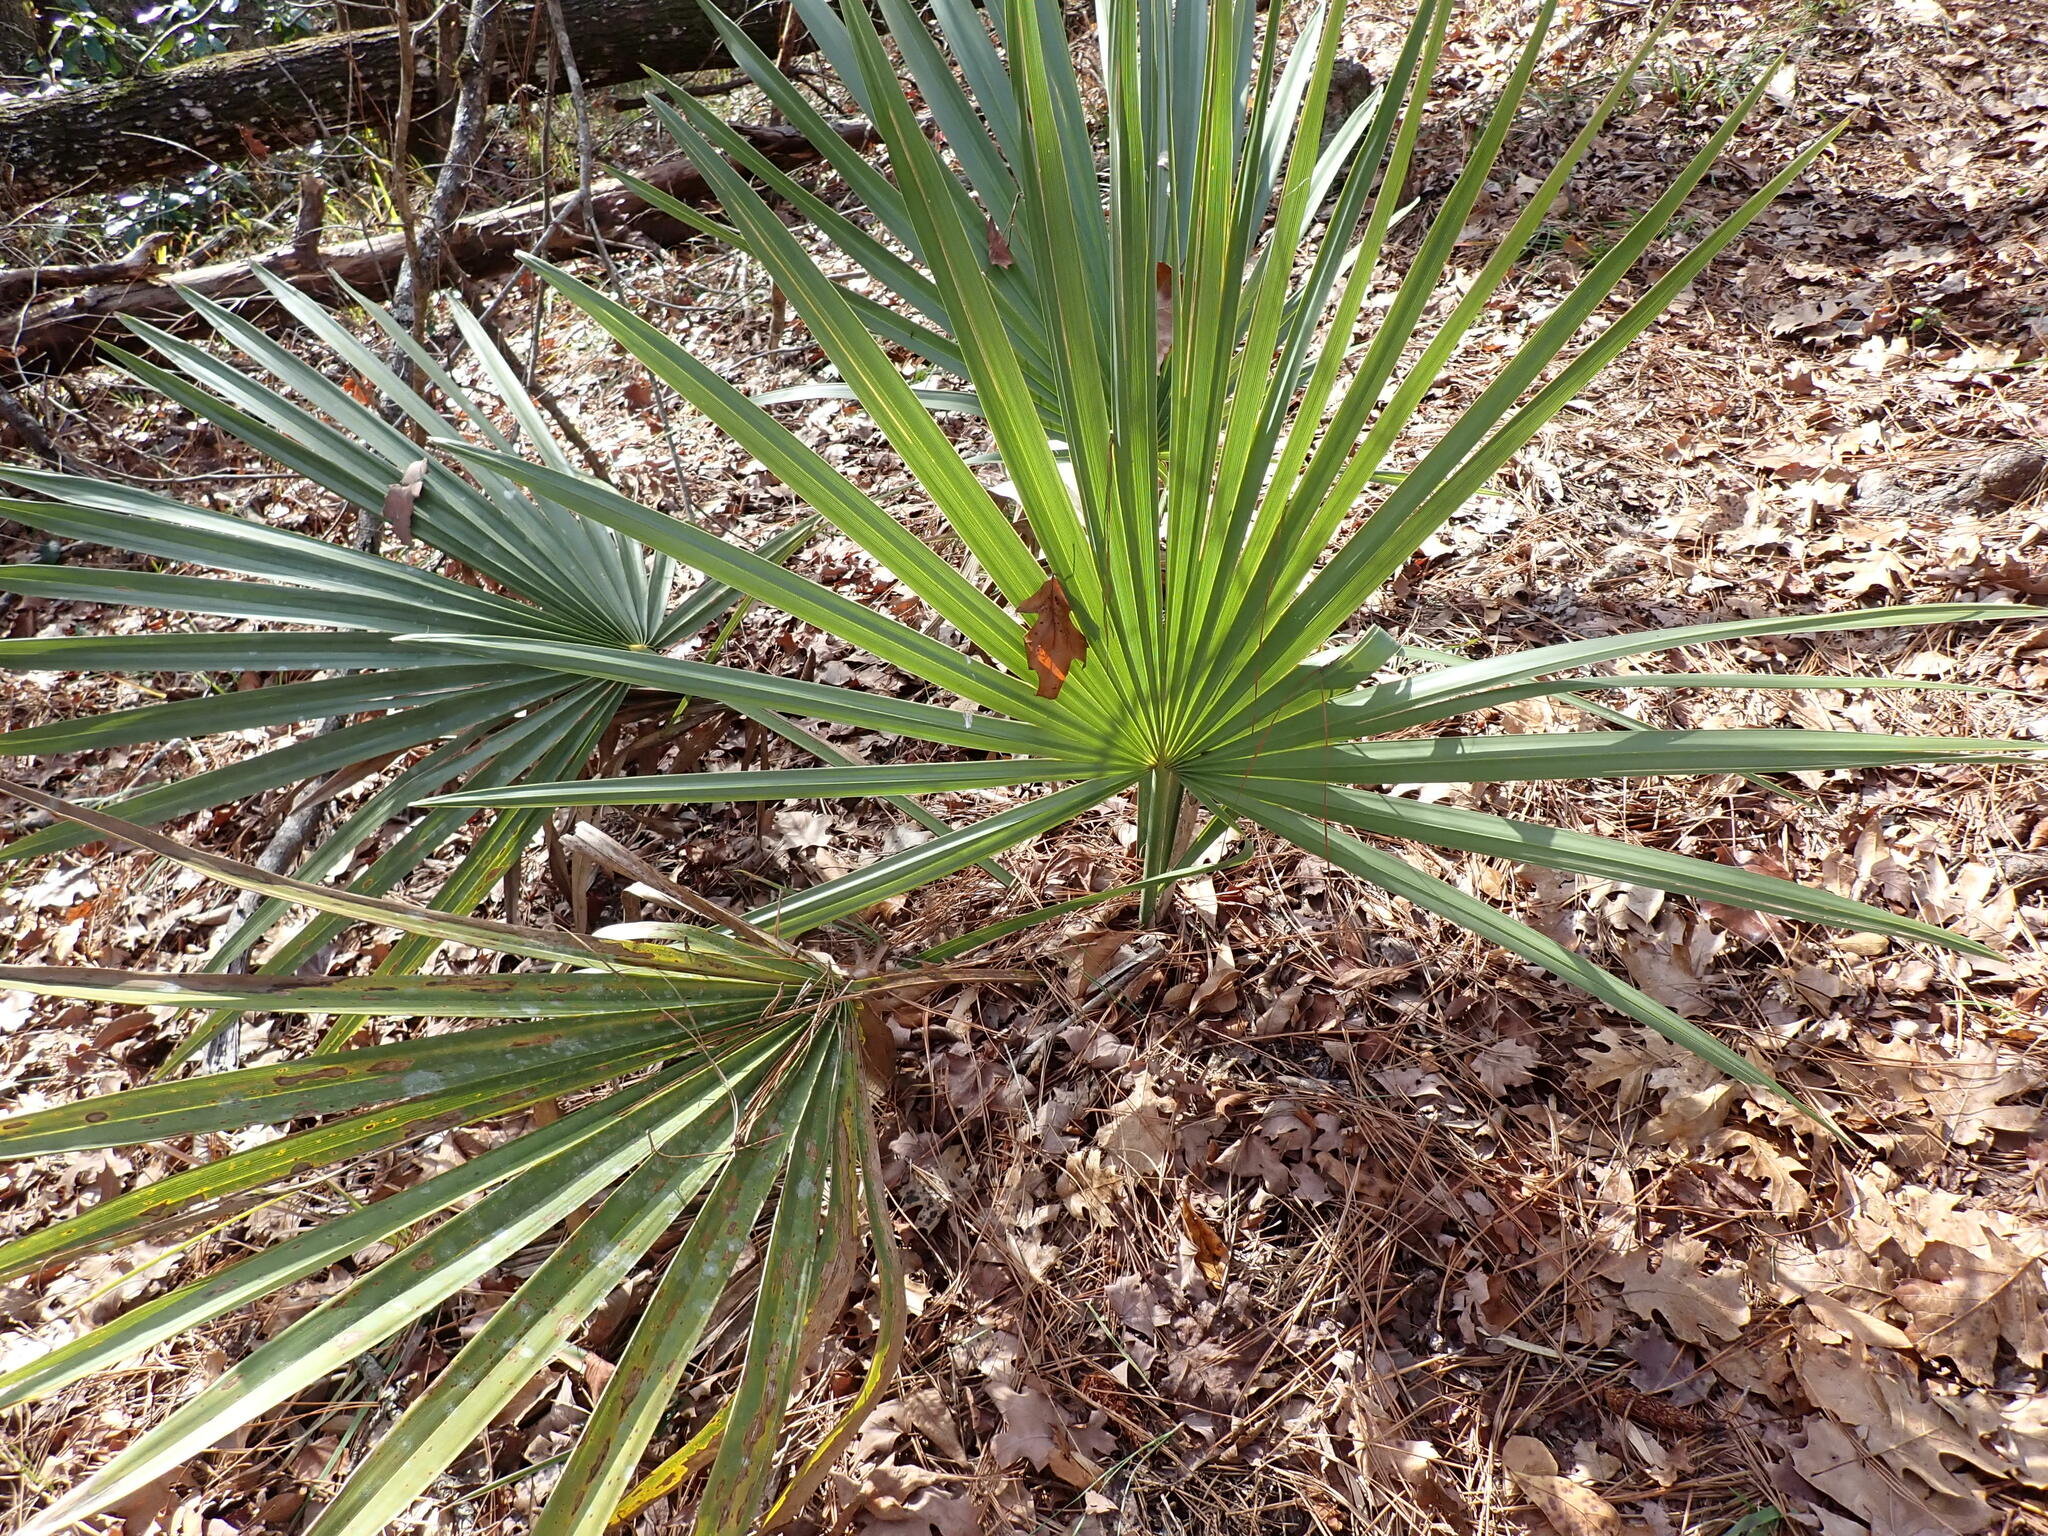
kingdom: Plantae
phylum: Tracheophyta
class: Liliopsida
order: Arecales
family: Arecaceae
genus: Sabal
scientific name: Sabal minor
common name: Dwarf palmetto
